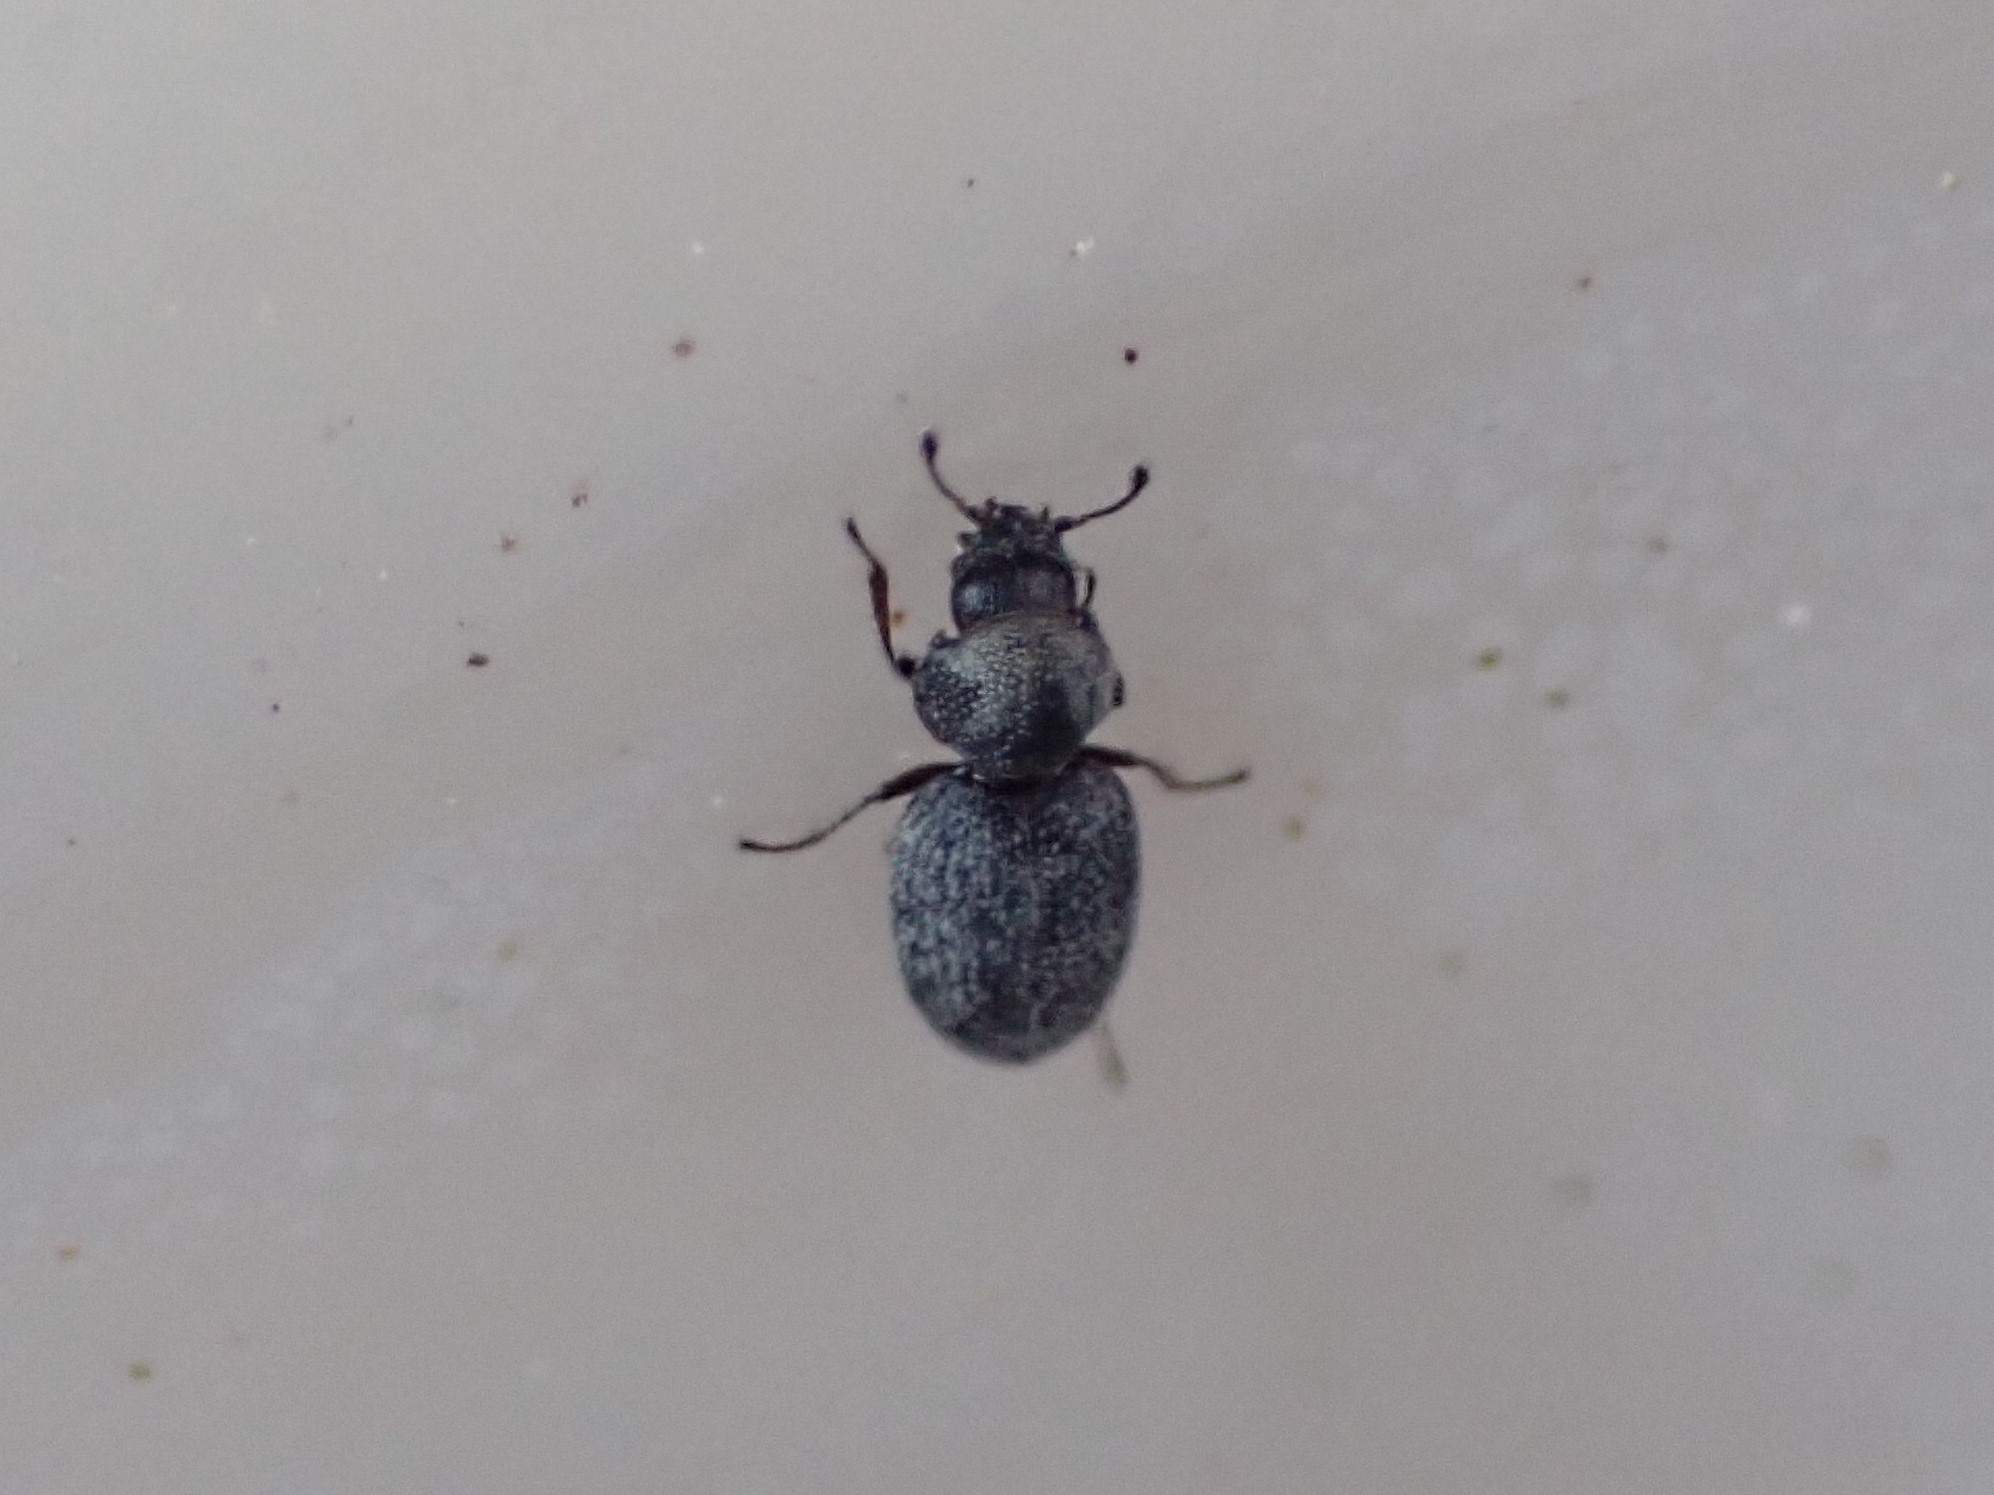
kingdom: Animalia
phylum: Arthropoda
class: Insecta
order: Coleoptera
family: Phycosecidae
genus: Phycosecis
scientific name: Phycosecis
